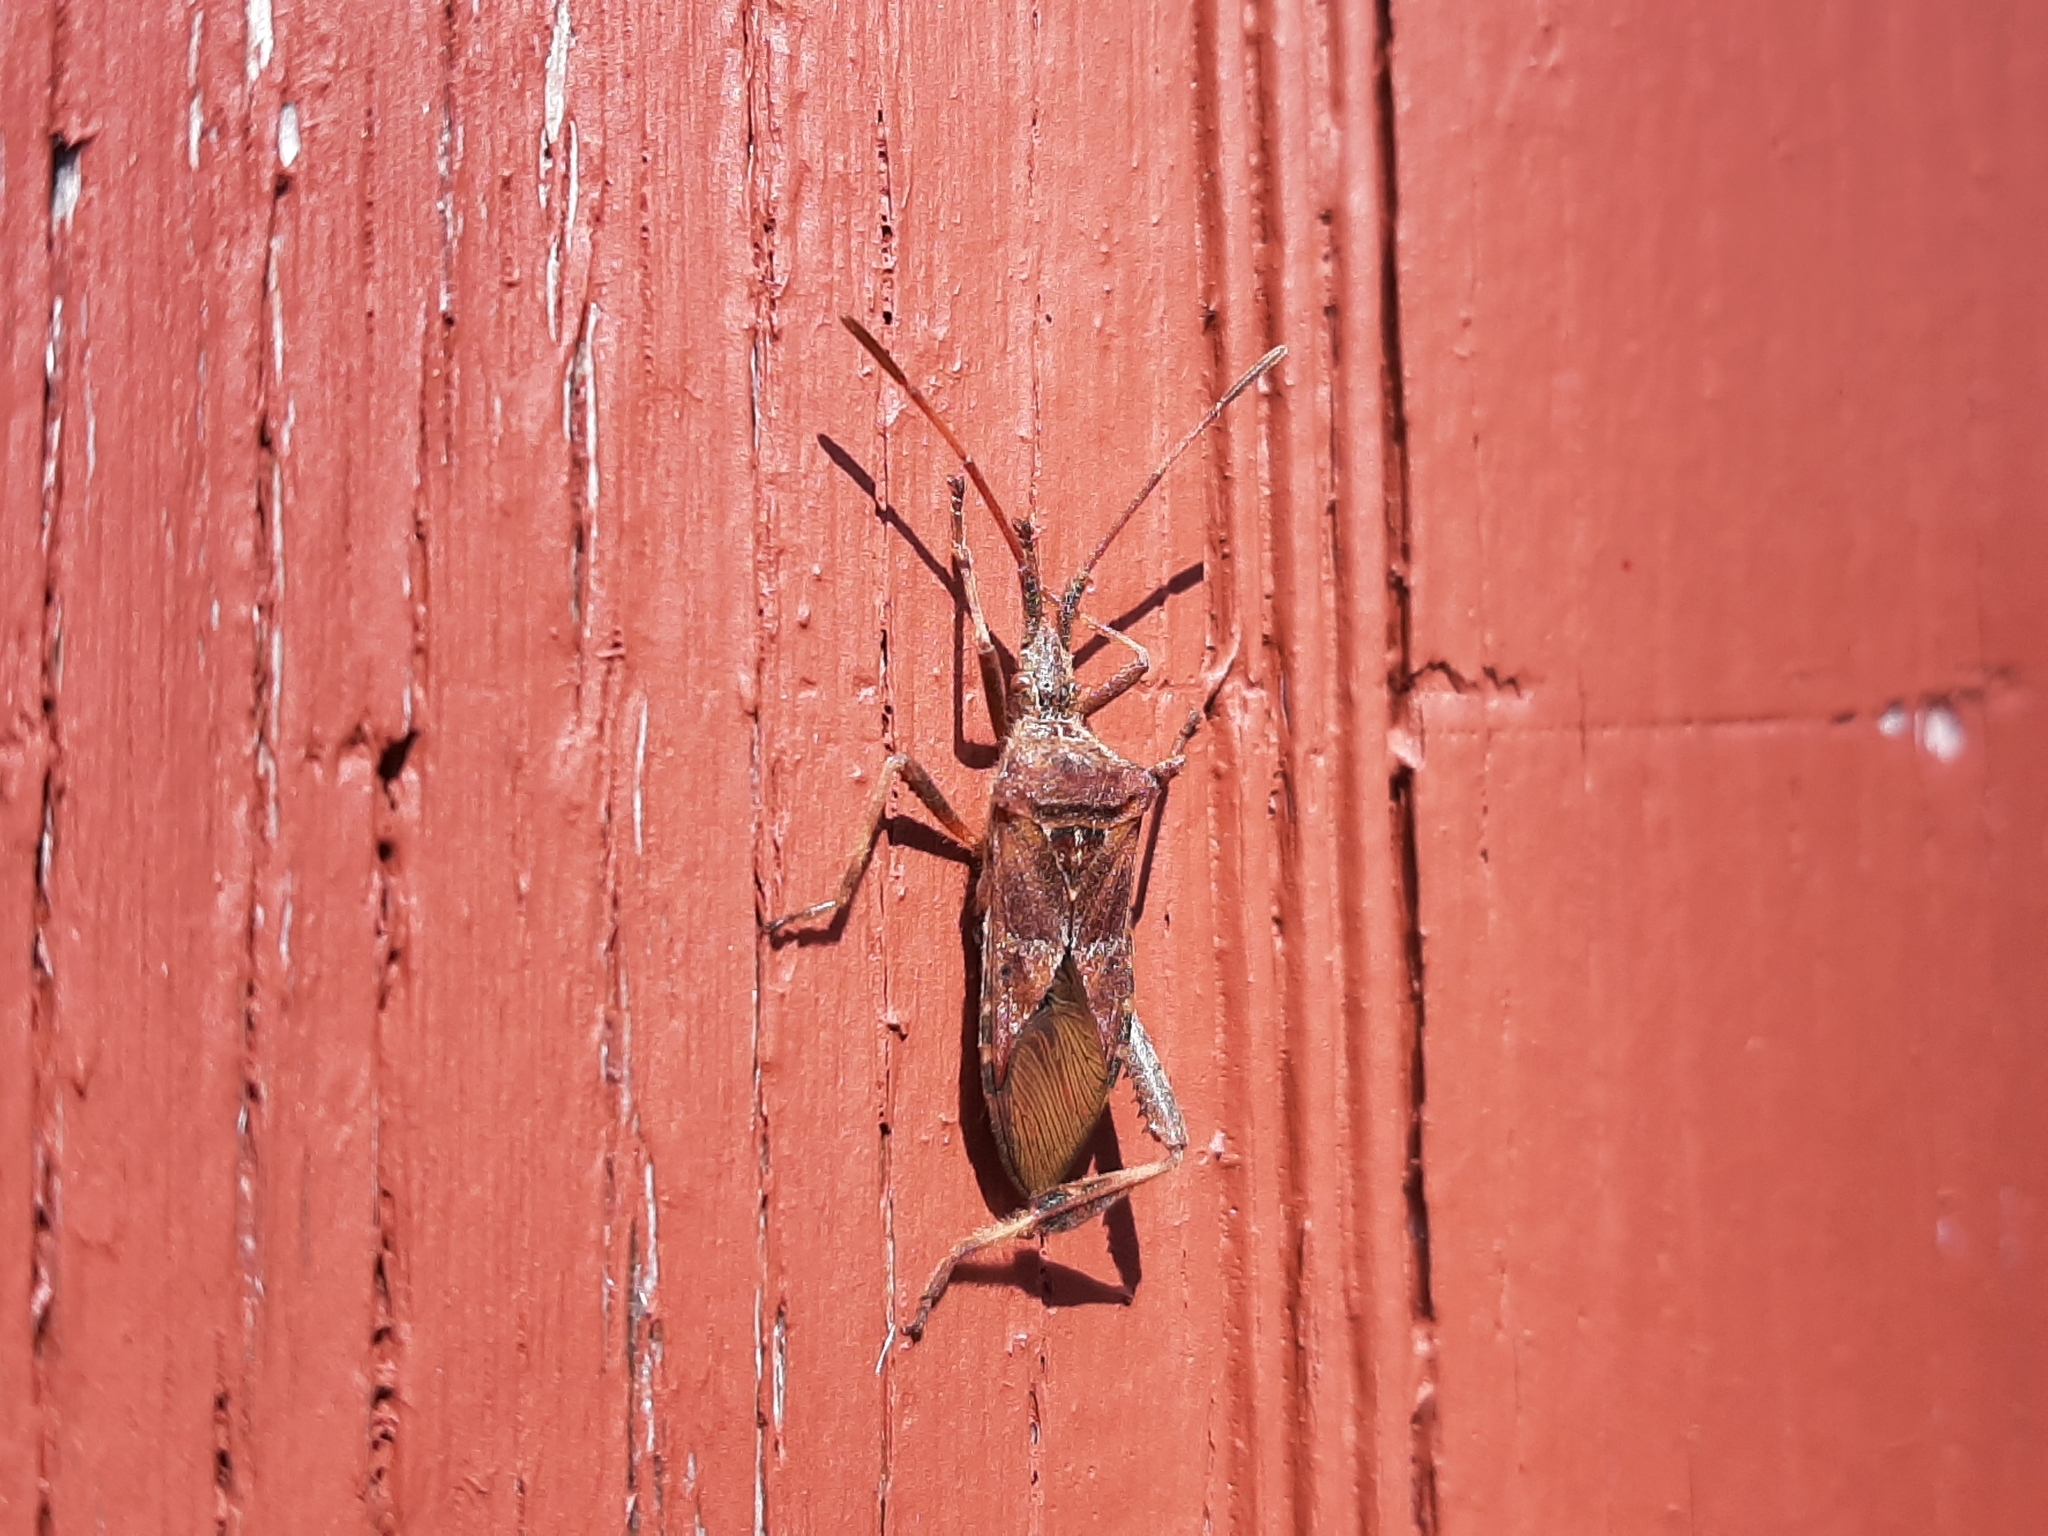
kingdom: Animalia
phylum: Arthropoda
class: Insecta
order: Hemiptera
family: Coreidae
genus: Leptoglossus
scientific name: Leptoglossus occidentalis
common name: Western conifer-seed bug
